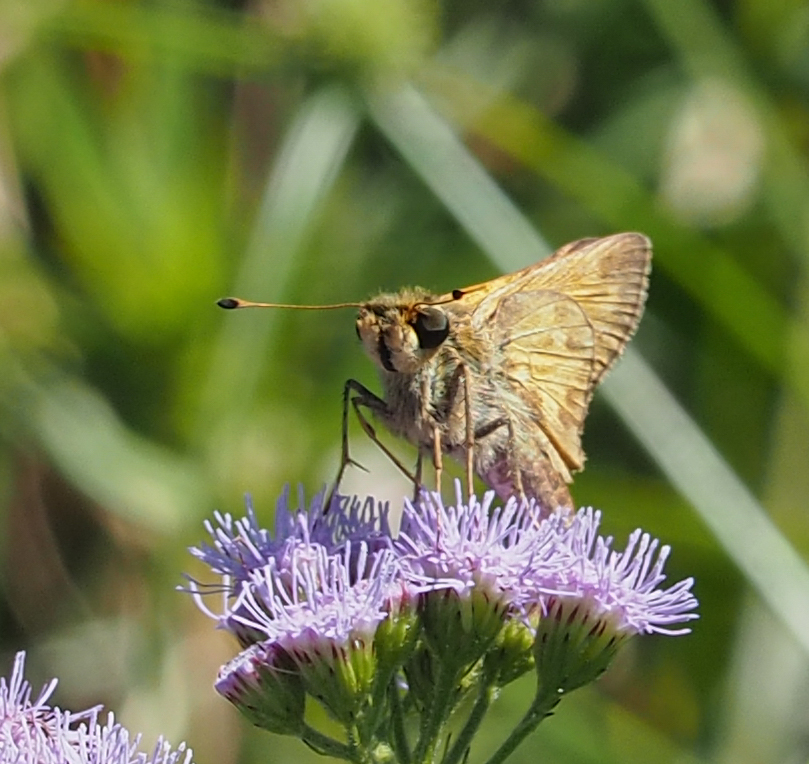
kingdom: Animalia
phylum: Arthropoda
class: Insecta
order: Lepidoptera
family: Hesperiidae
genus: Atalopedes
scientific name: Atalopedes
